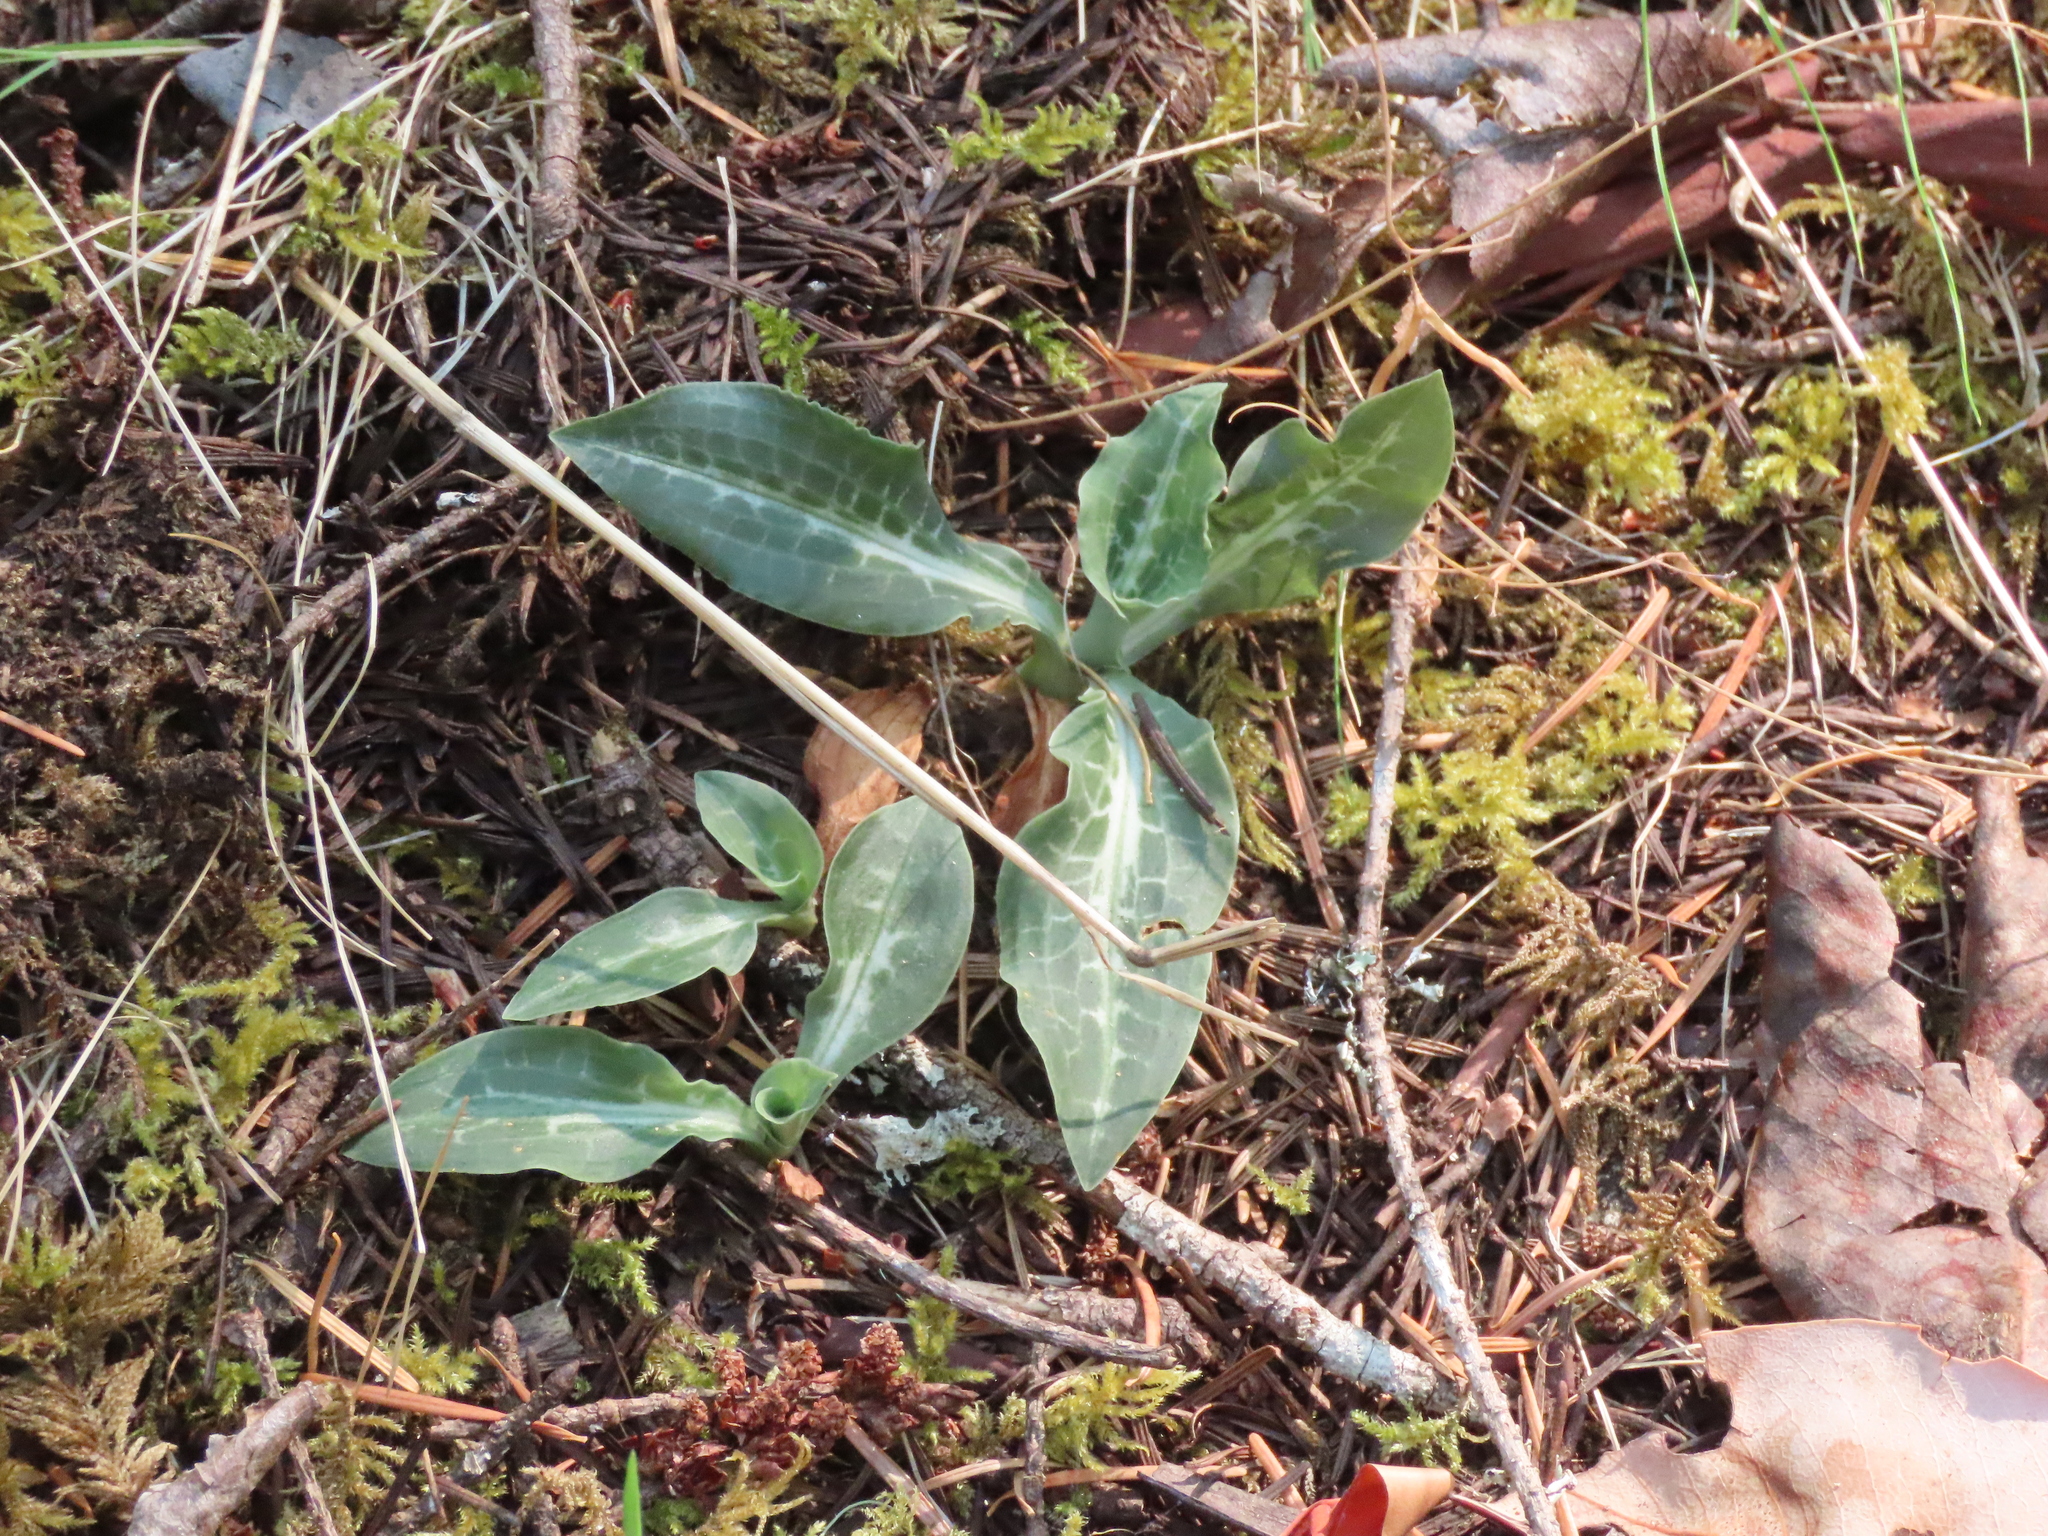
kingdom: Plantae
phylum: Tracheophyta
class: Liliopsida
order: Asparagales
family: Orchidaceae
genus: Goodyera
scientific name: Goodyera oblongifolia
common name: Giant rattlesnake-plantain
